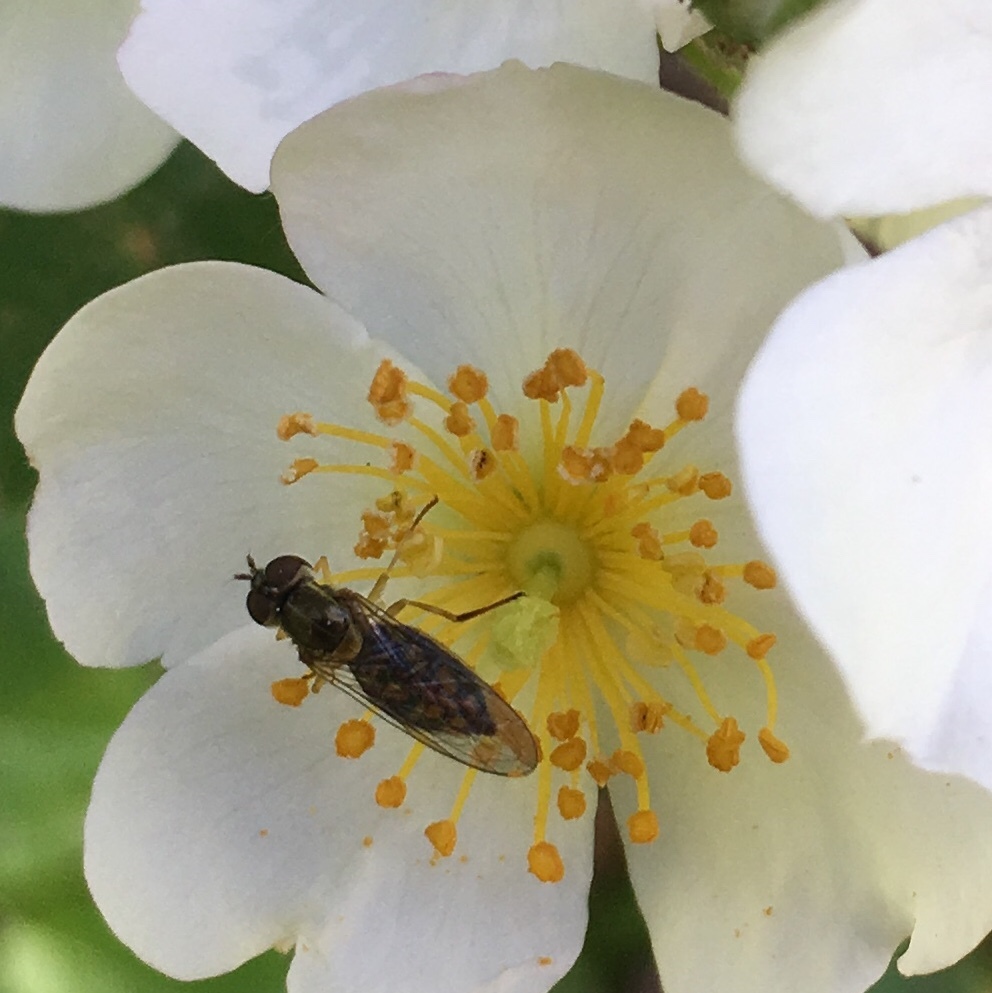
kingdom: Animalia
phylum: Arthropoda
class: Insecta
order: Diptera
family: Syrphidae
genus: Toxomerus
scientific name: Toxomerus marginatus
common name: Syrphid fly
